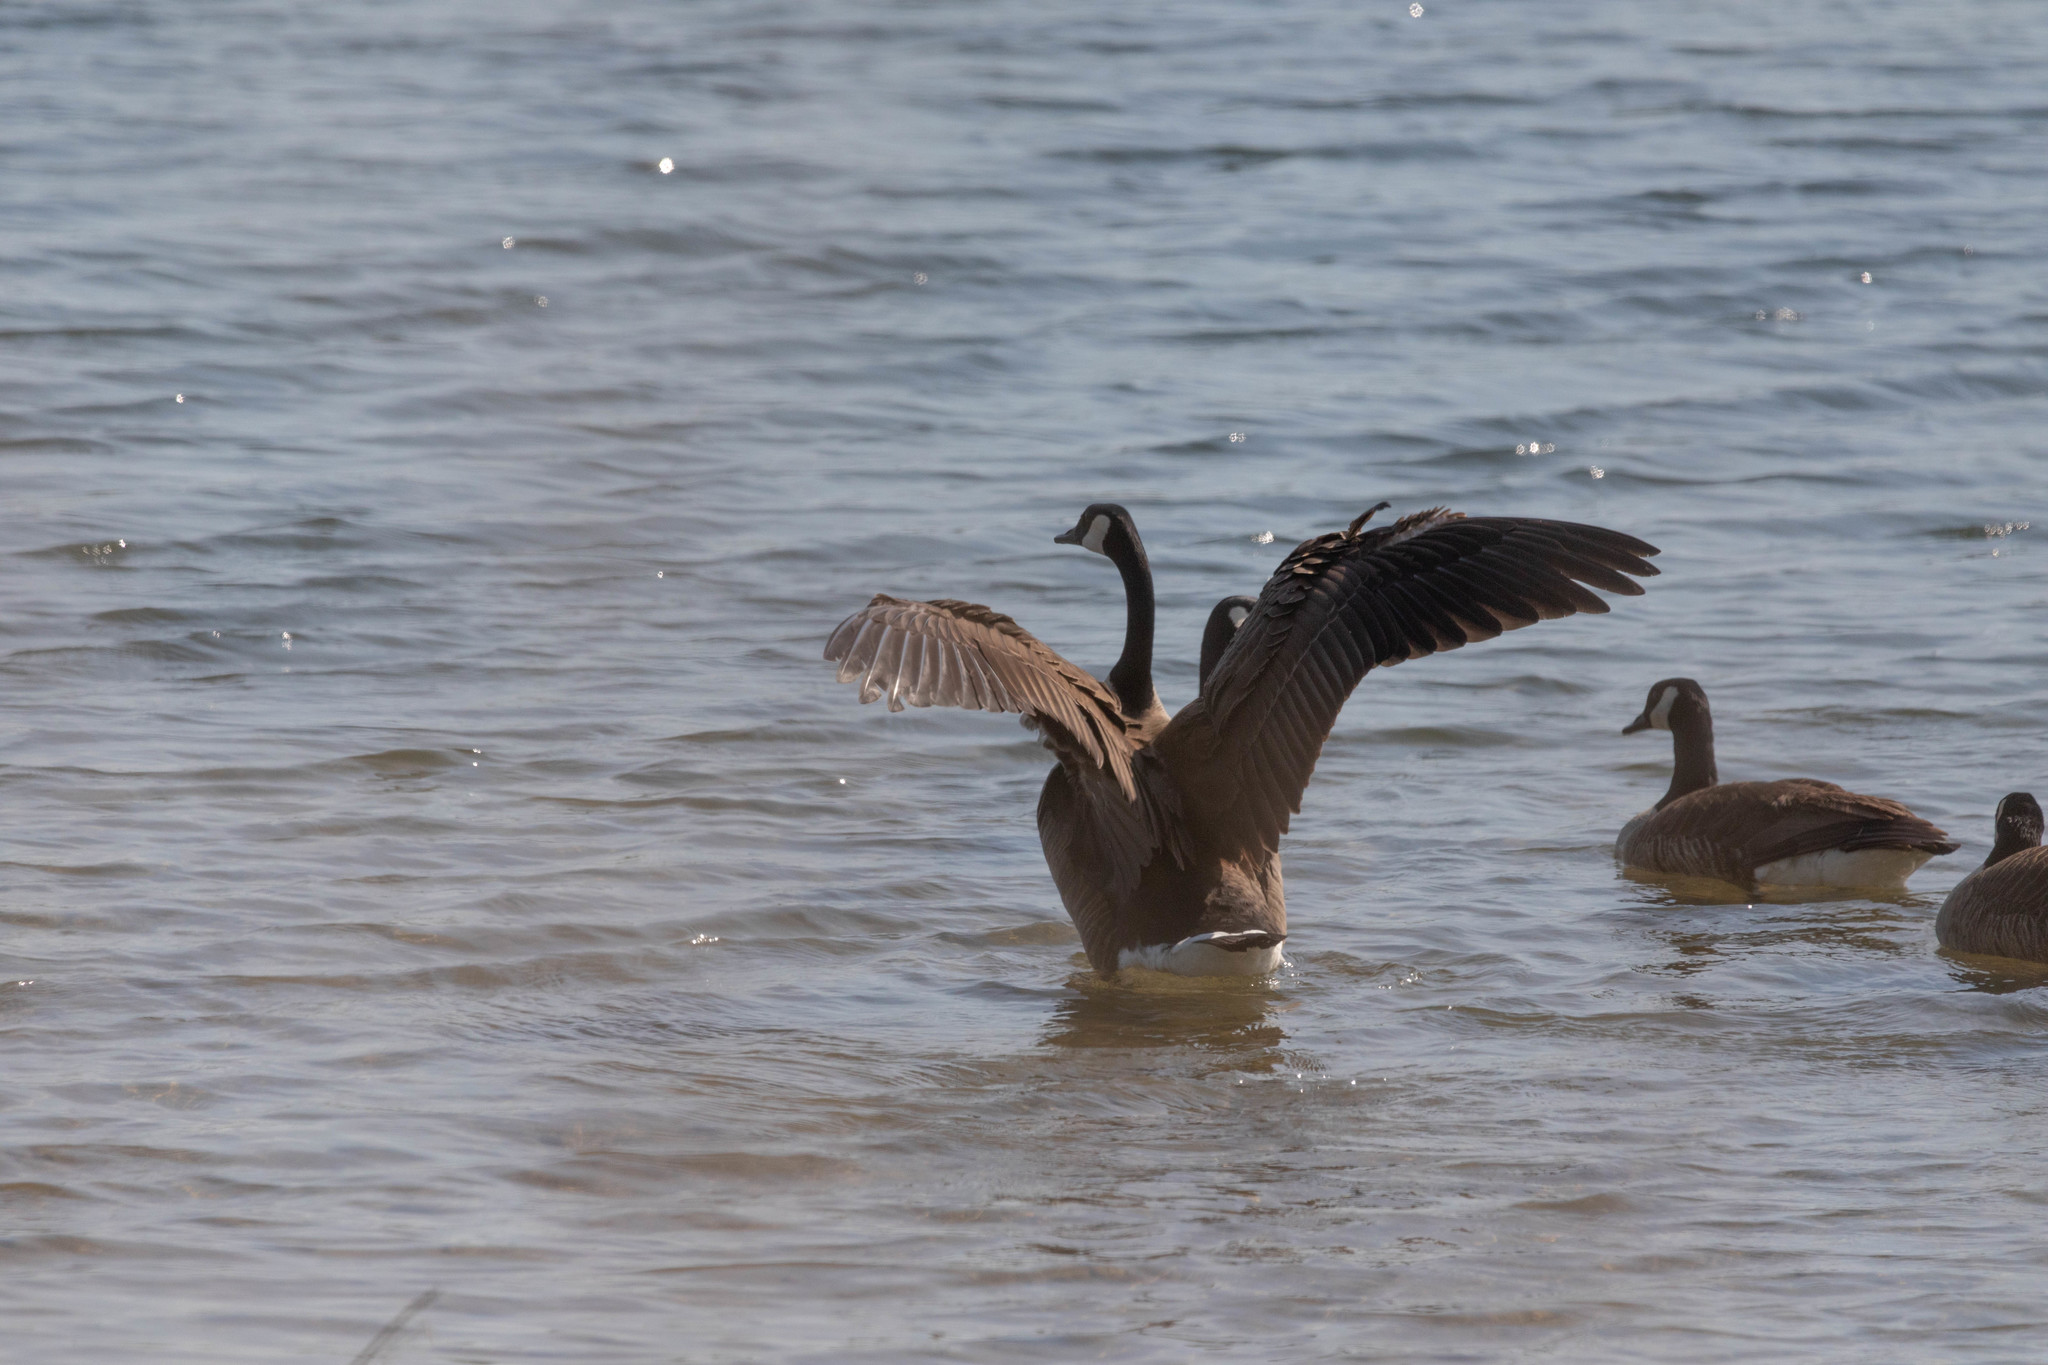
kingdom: Animalia
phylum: Chordata
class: Aves
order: Anseriformes
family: Anatidae
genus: Branta
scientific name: Branta canadensis
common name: Canada goose
